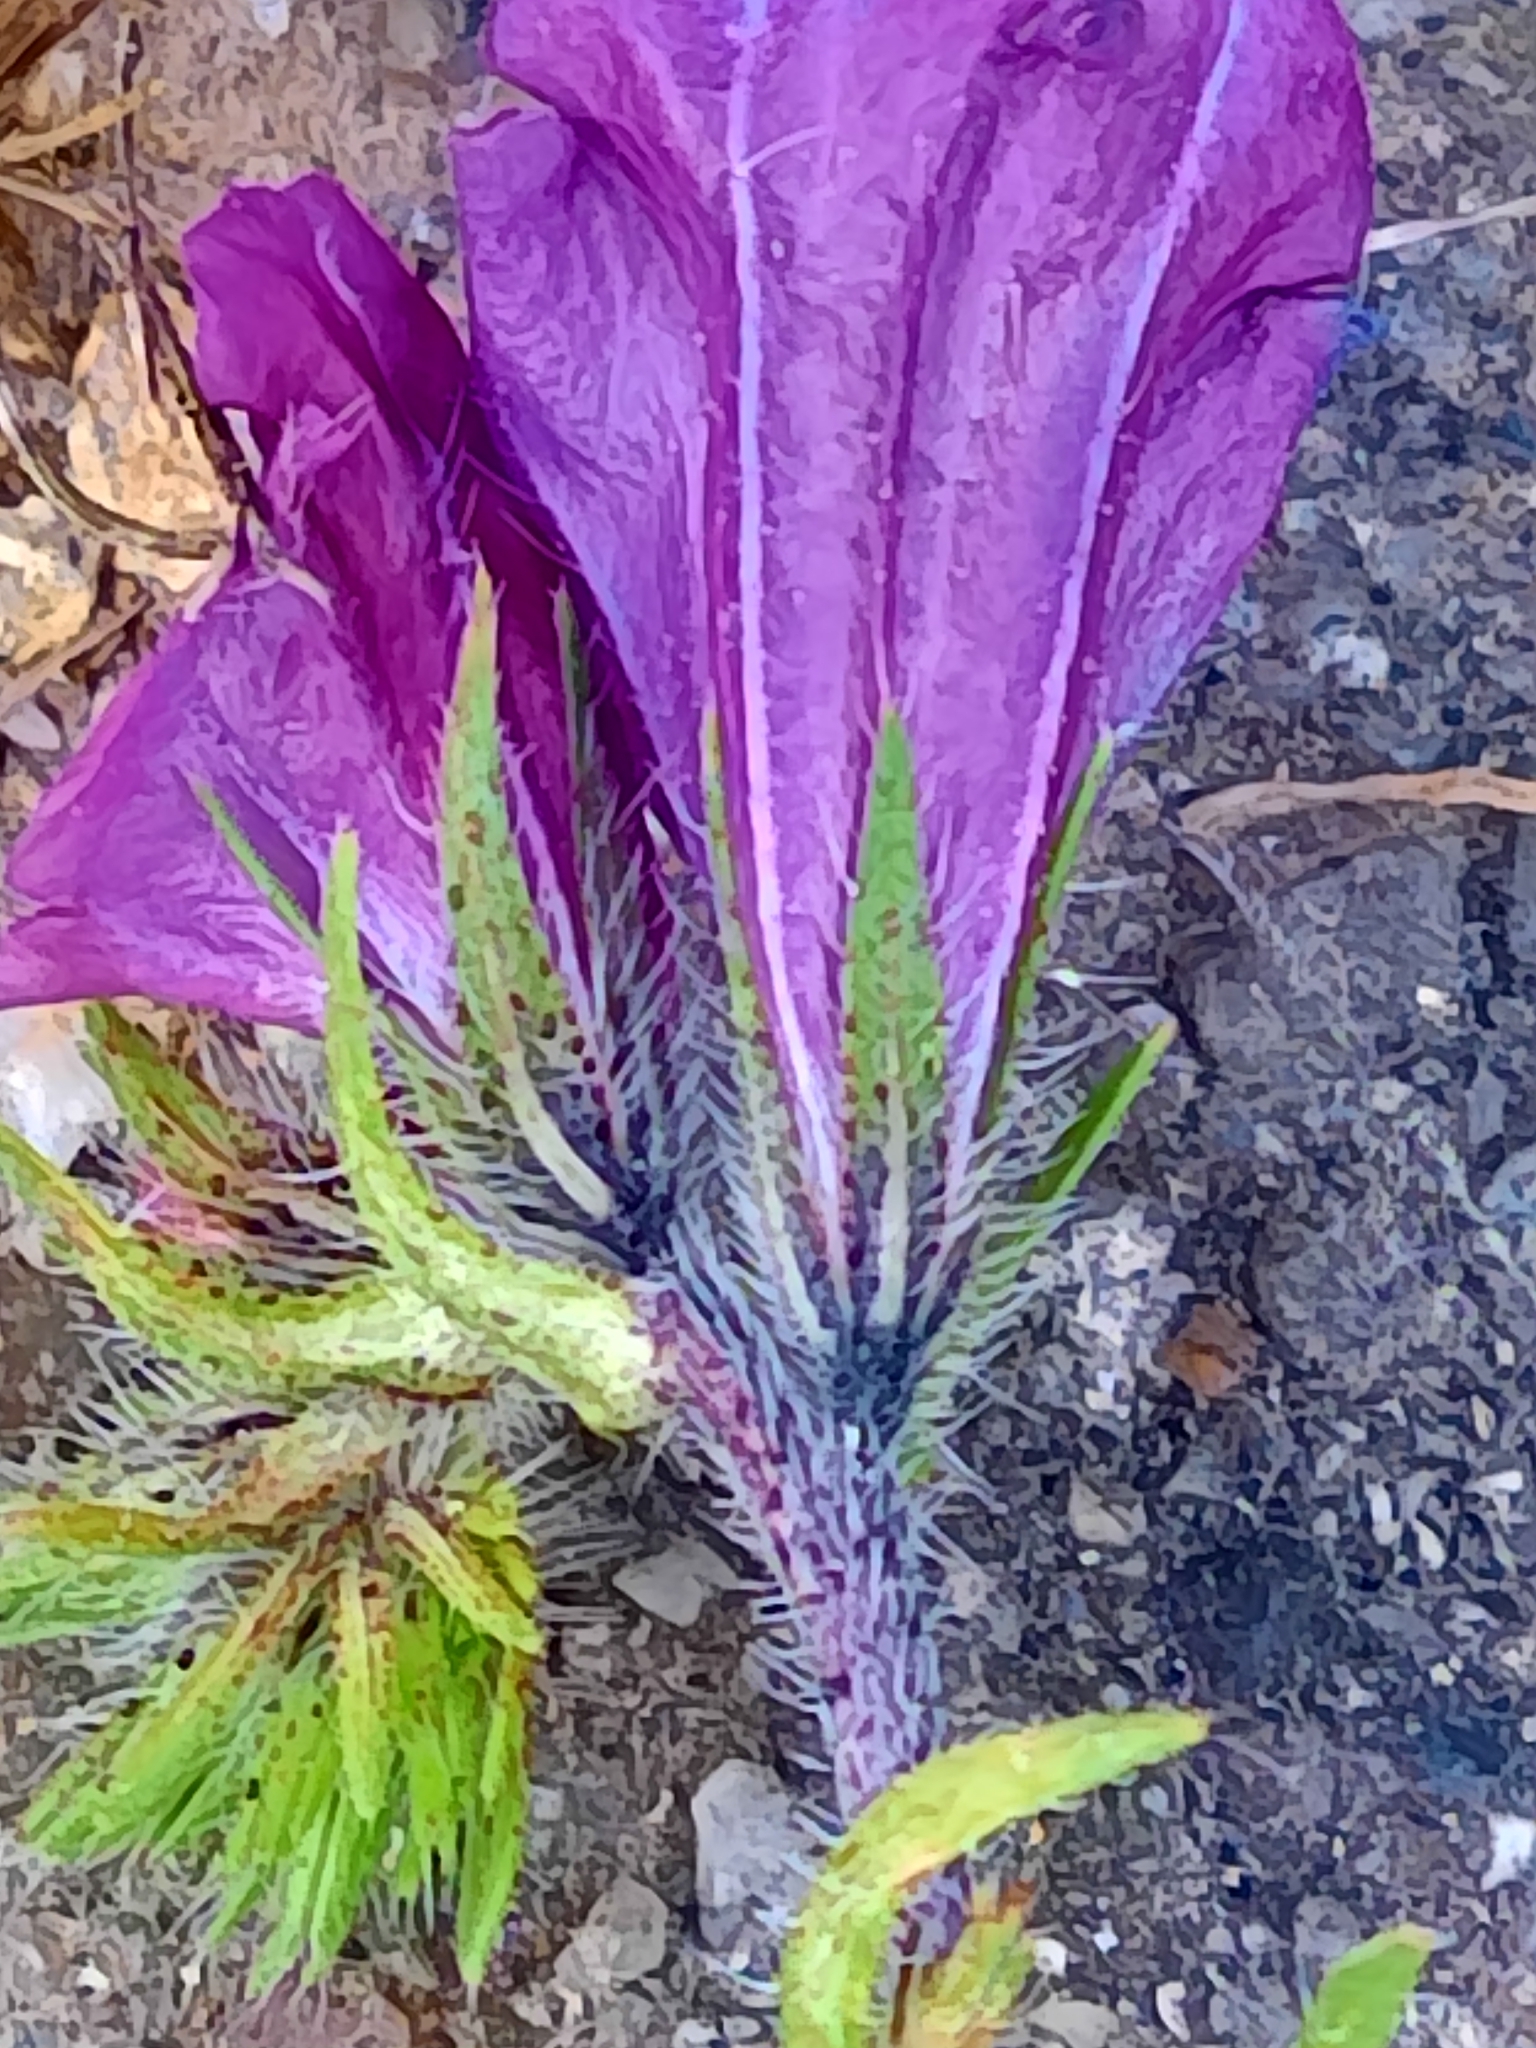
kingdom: Plantae
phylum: Tracheophyta
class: Magnoliopsida
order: Boraginales
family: Boraginaceae
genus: Echium
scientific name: Echium plantagineum
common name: Purple viper's-bugloss
